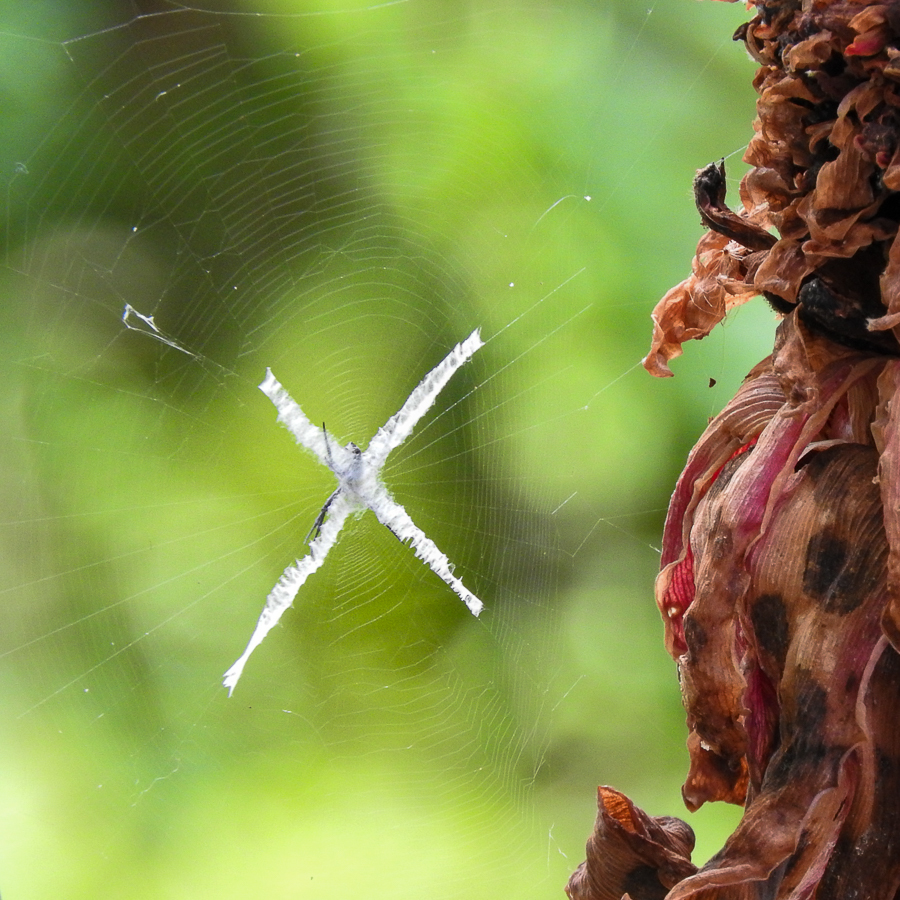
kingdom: Animalia
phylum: Arthropoda
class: Arachnida
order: Araneae
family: Araneidae
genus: Argiope
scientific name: Argiope argentata
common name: Orb weavers
